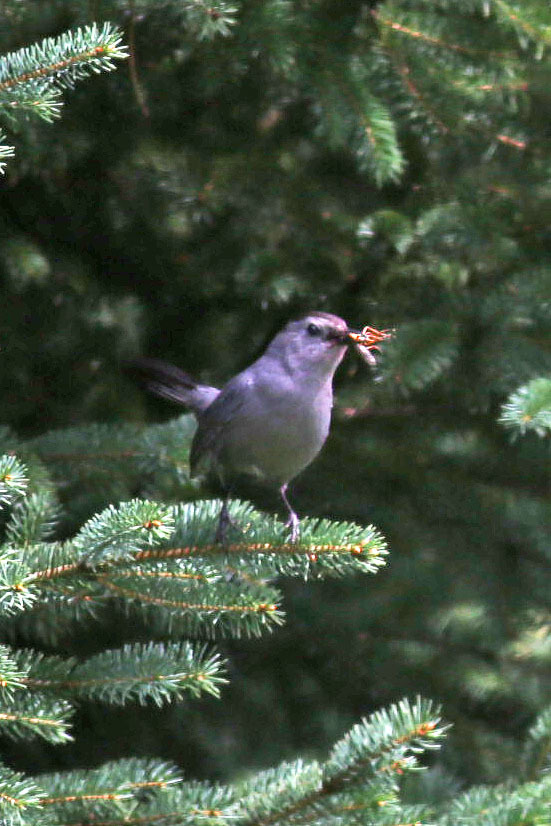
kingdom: Animalia
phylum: Chordata
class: Aves
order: Passeriformes
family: Mimidae
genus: Dumetella
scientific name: Dumetella carolinensis
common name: Gray catbird
